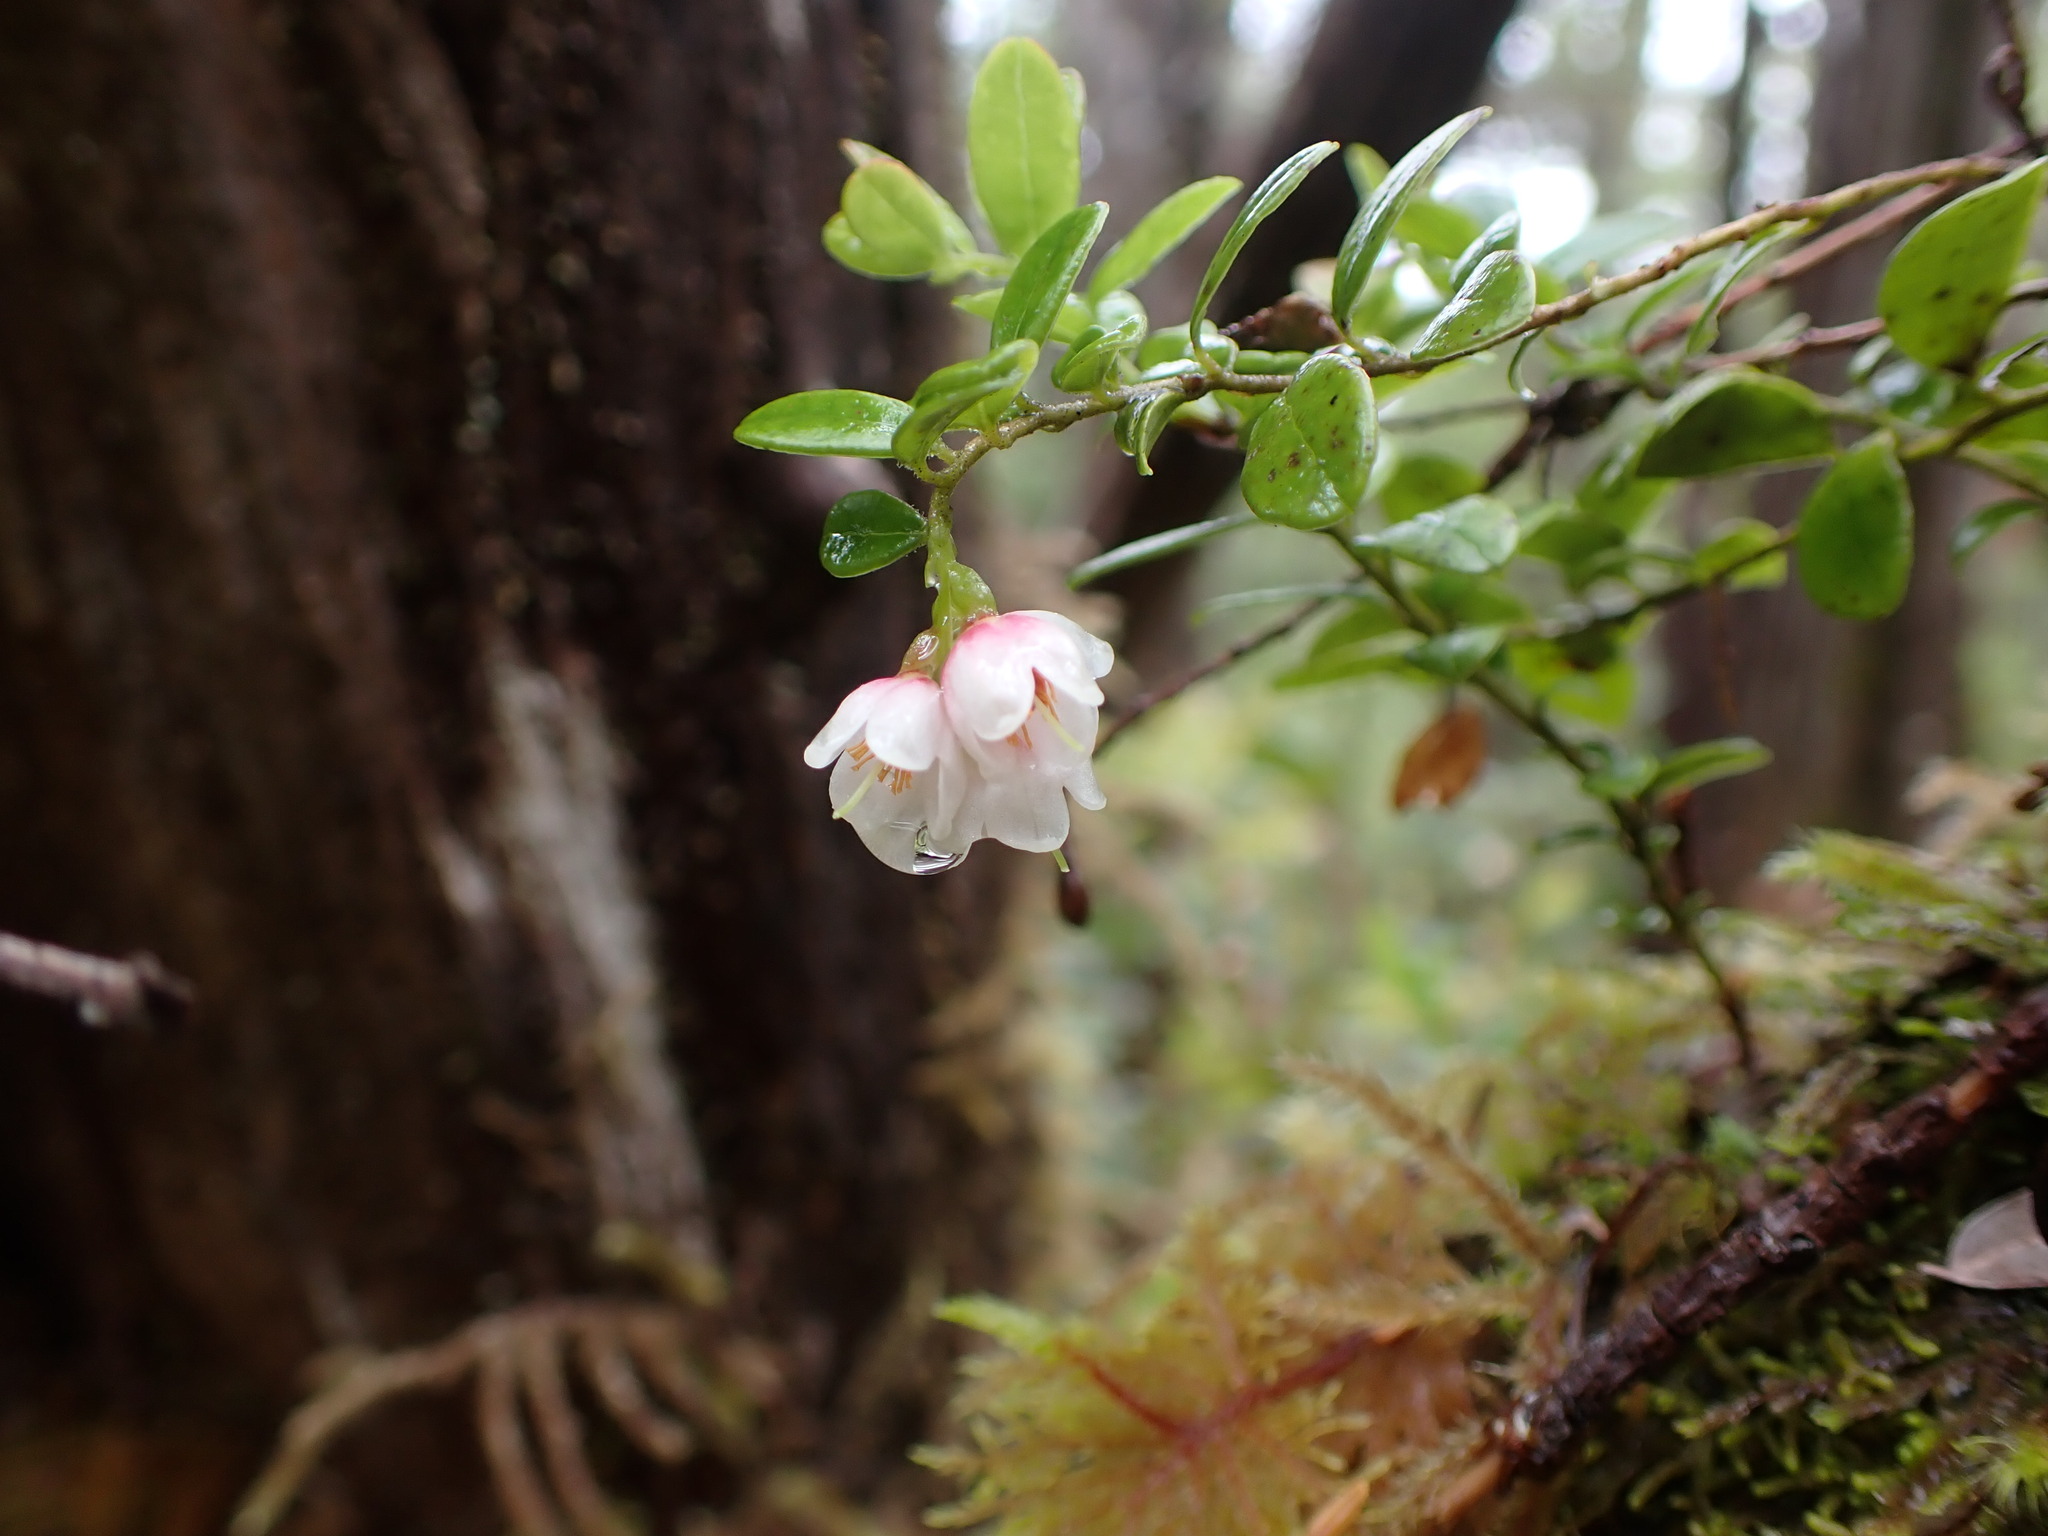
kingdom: Plantae
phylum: Tracheophyta
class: Magnoliopsida
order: Ericales
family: Ericaceae
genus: Vaccinium
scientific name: Vaccinium vitis-idaea
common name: Cowberry
